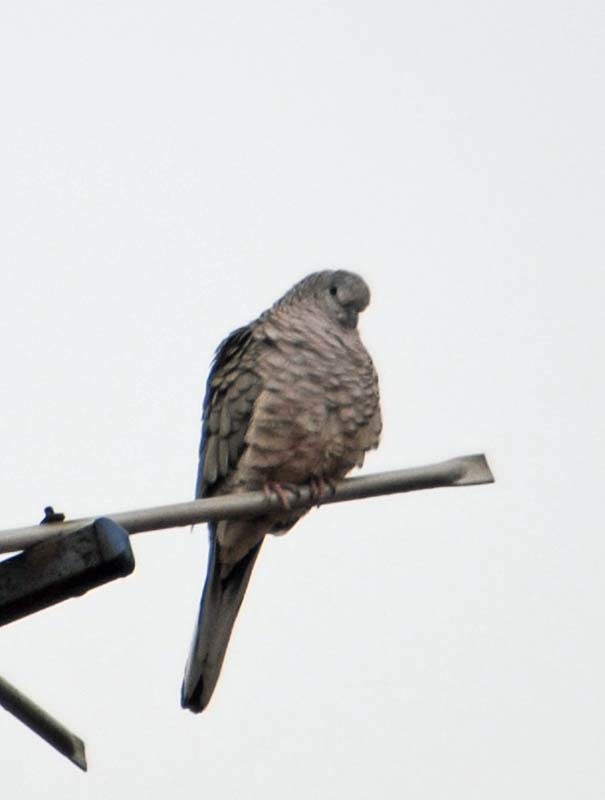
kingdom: Animalia
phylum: Chordata
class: Aves
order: Columbiformes
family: Columbidae
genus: Columbina
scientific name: Columbina inca
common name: Inca dove
